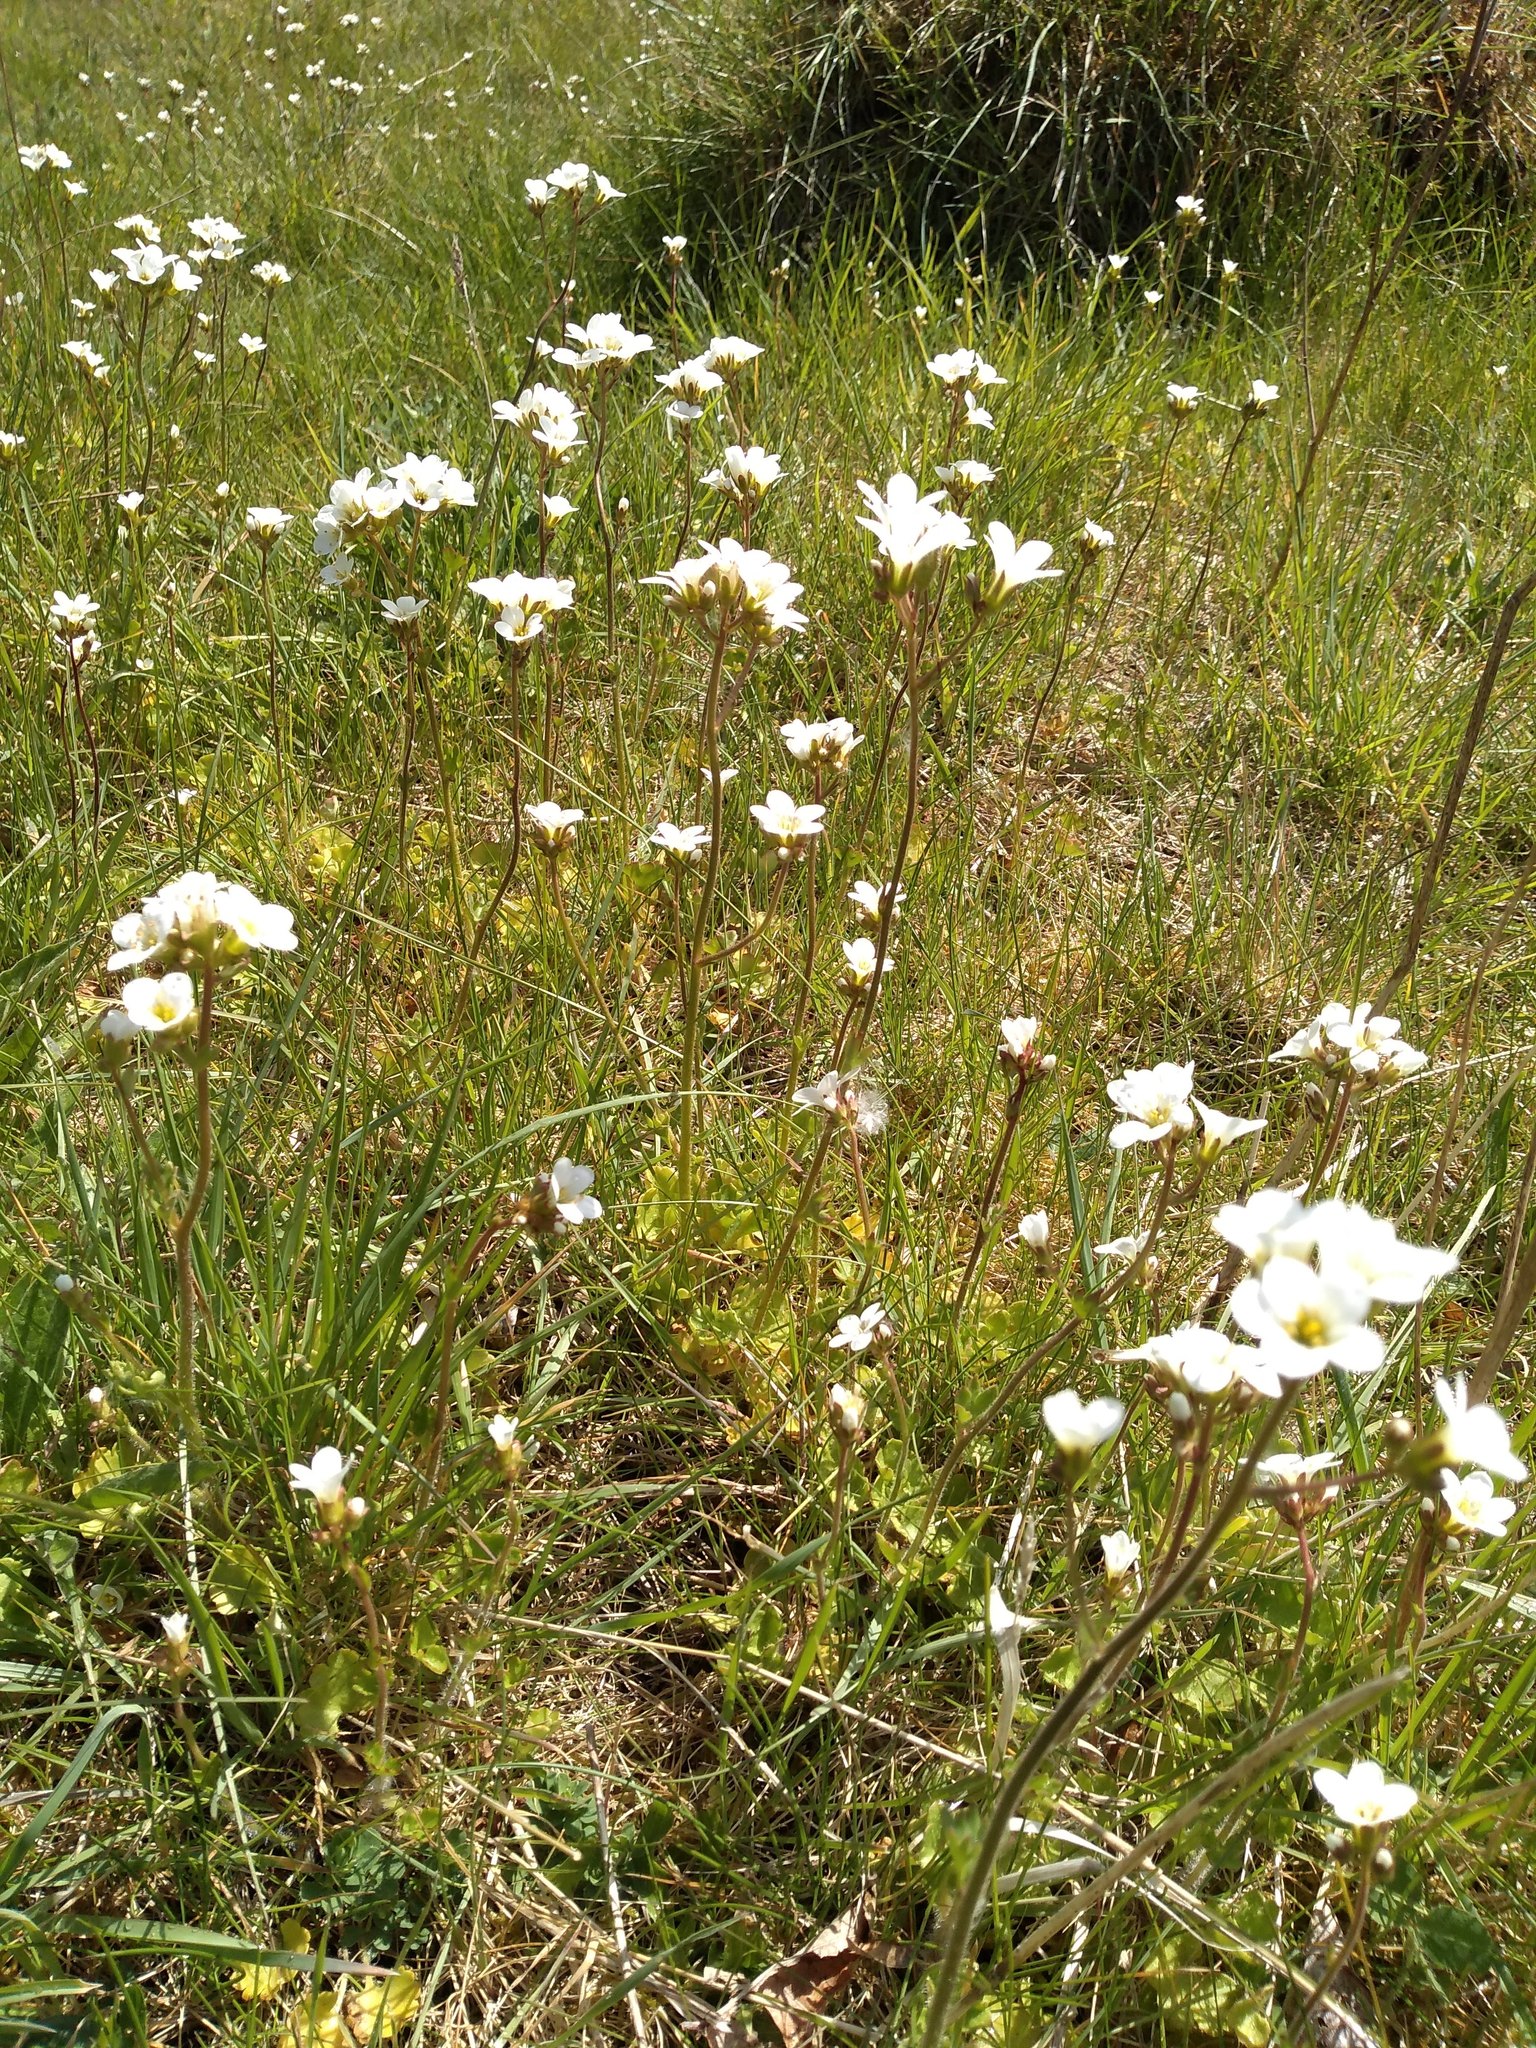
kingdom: Plantae
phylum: Tracheophyta
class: Magnoliopsida
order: Saxifragales
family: Saxifragaceae
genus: Saxifraga
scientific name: Saxifraga granulata
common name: Meadow saxifrage
